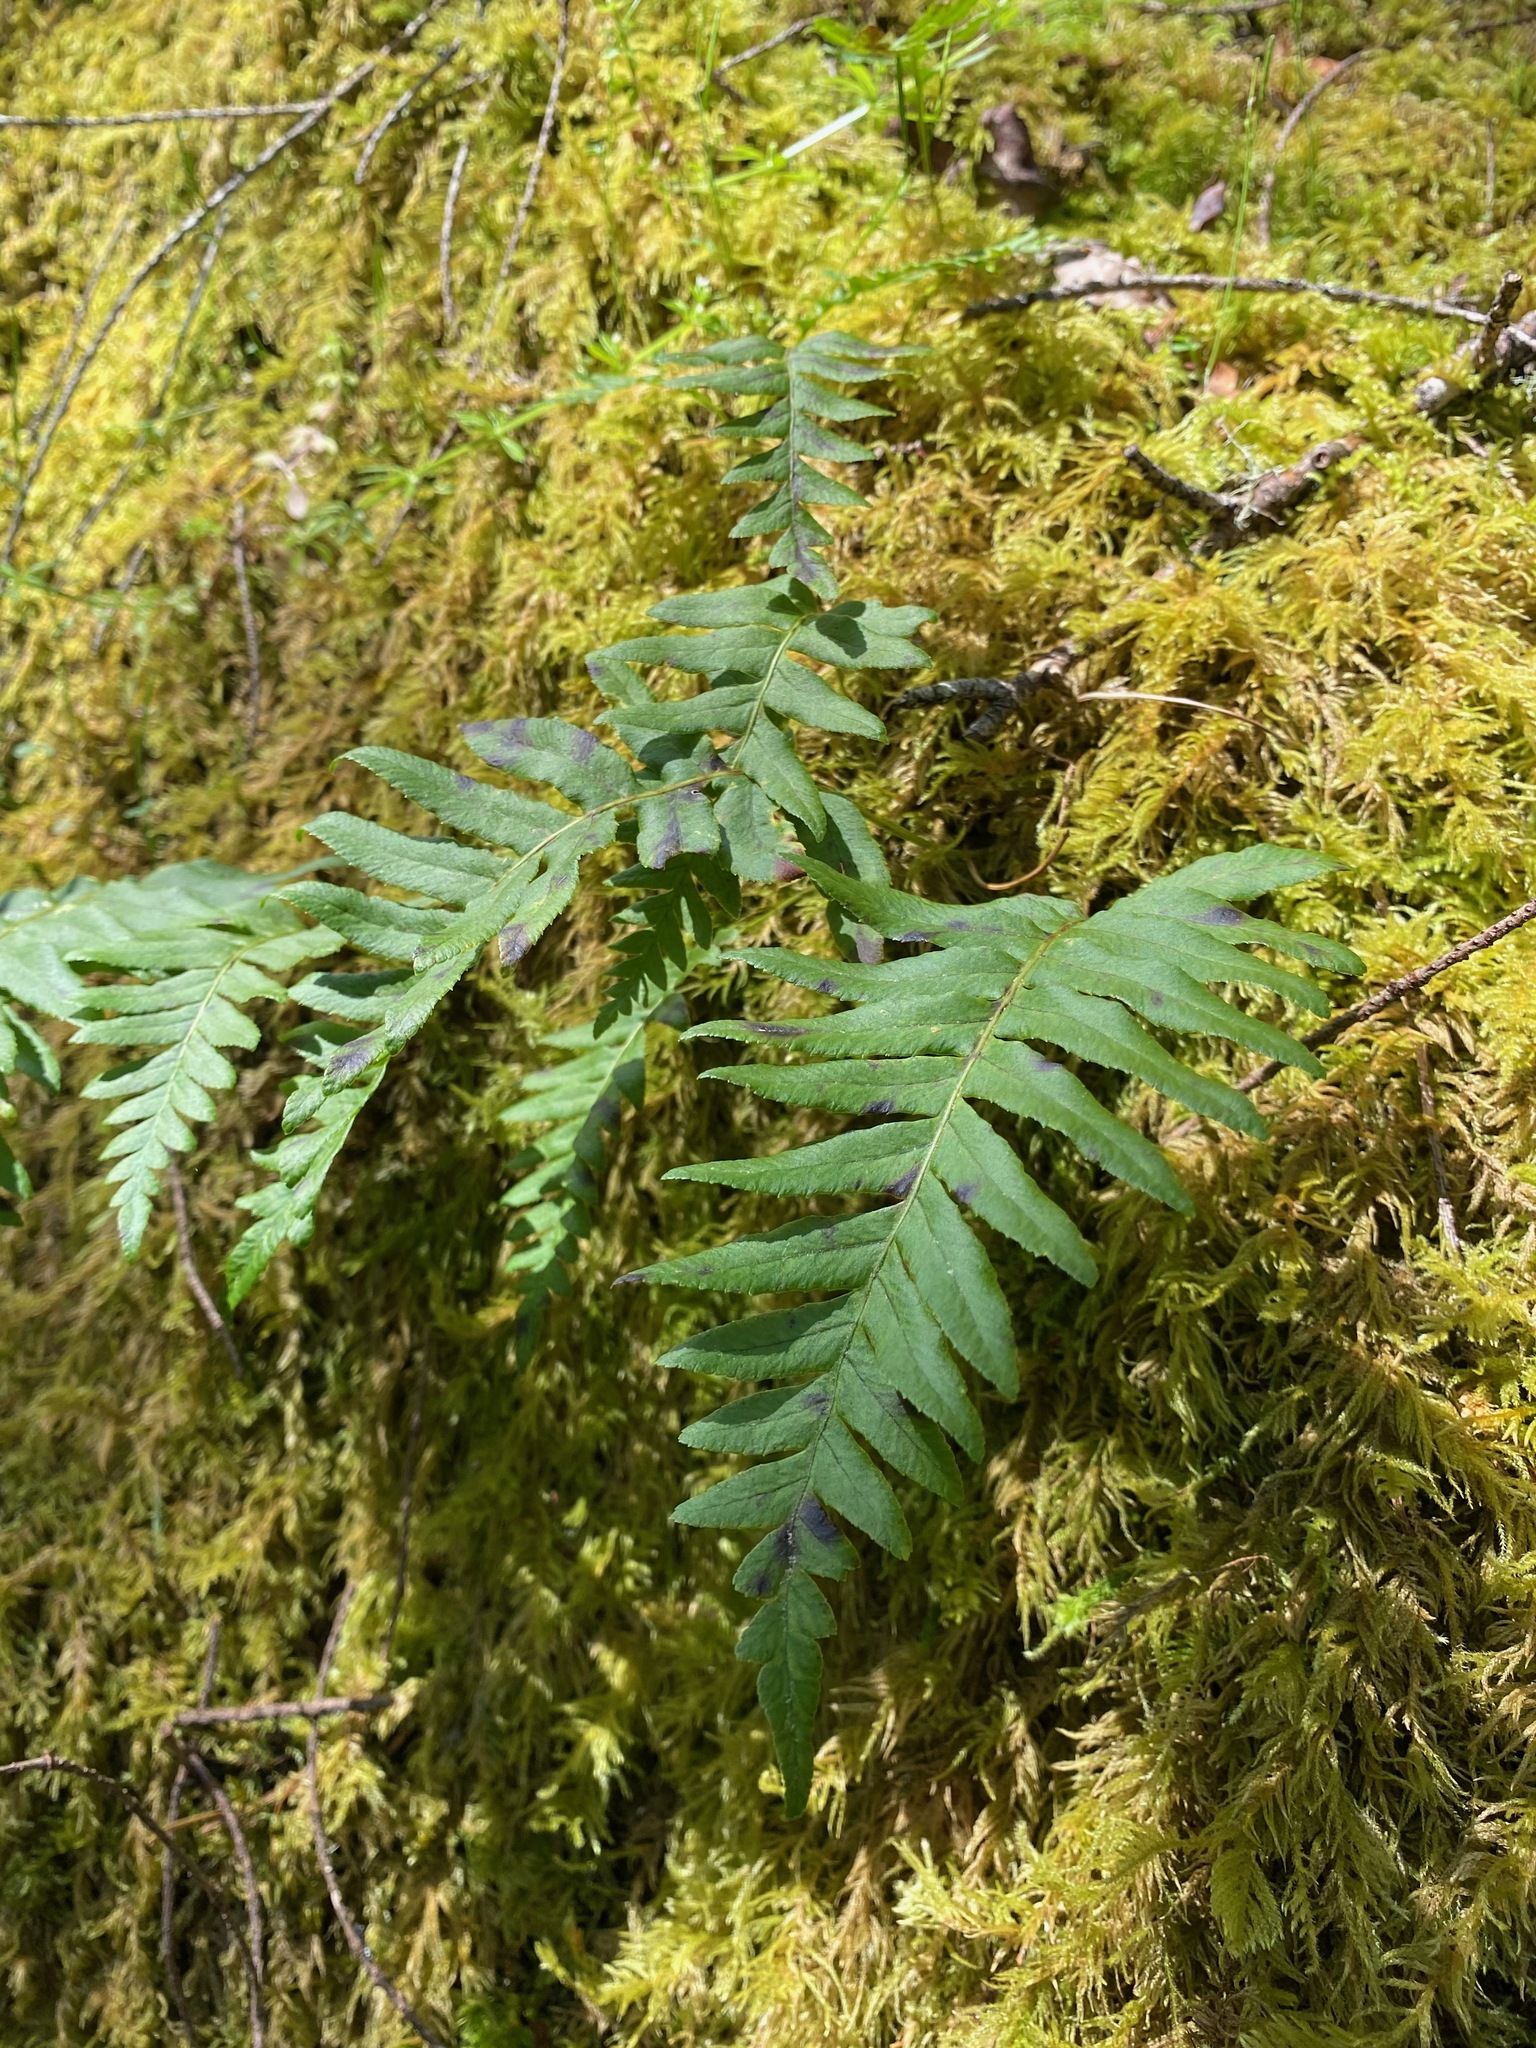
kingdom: Plantae
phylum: Tracheophyta
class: Polypodiopsida
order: Polypodiales
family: Polypodiaceae
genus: Polypodium
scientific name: Polypodium glycyrrhiza
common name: Licorice fern
